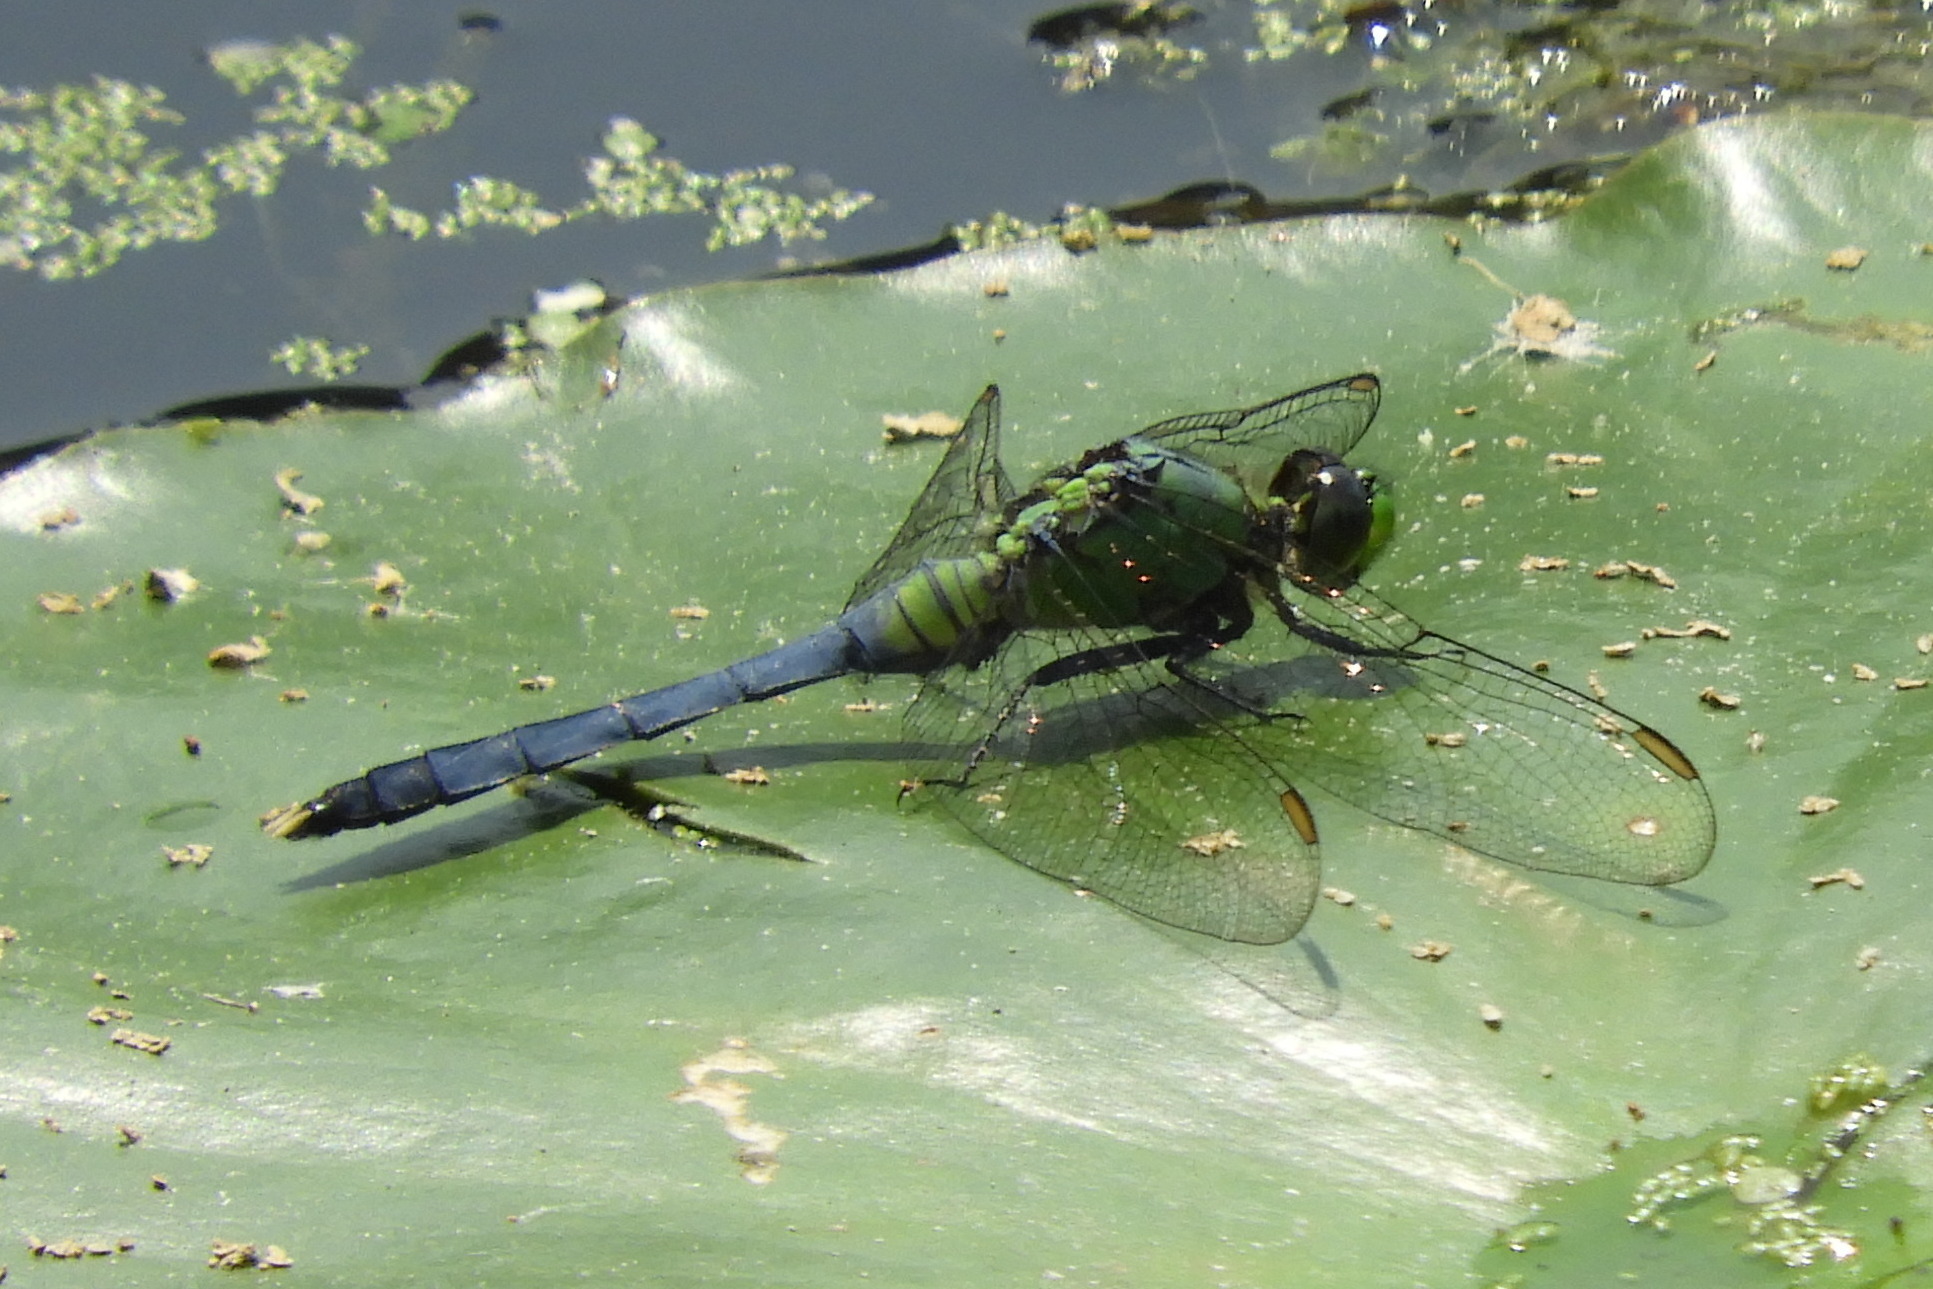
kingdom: Animalia
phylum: Arthropoda
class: Insecta
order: Odonata
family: Libellulidae
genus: Erythemis
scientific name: Erythemis simplicicollis
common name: Eastern pondhawk
